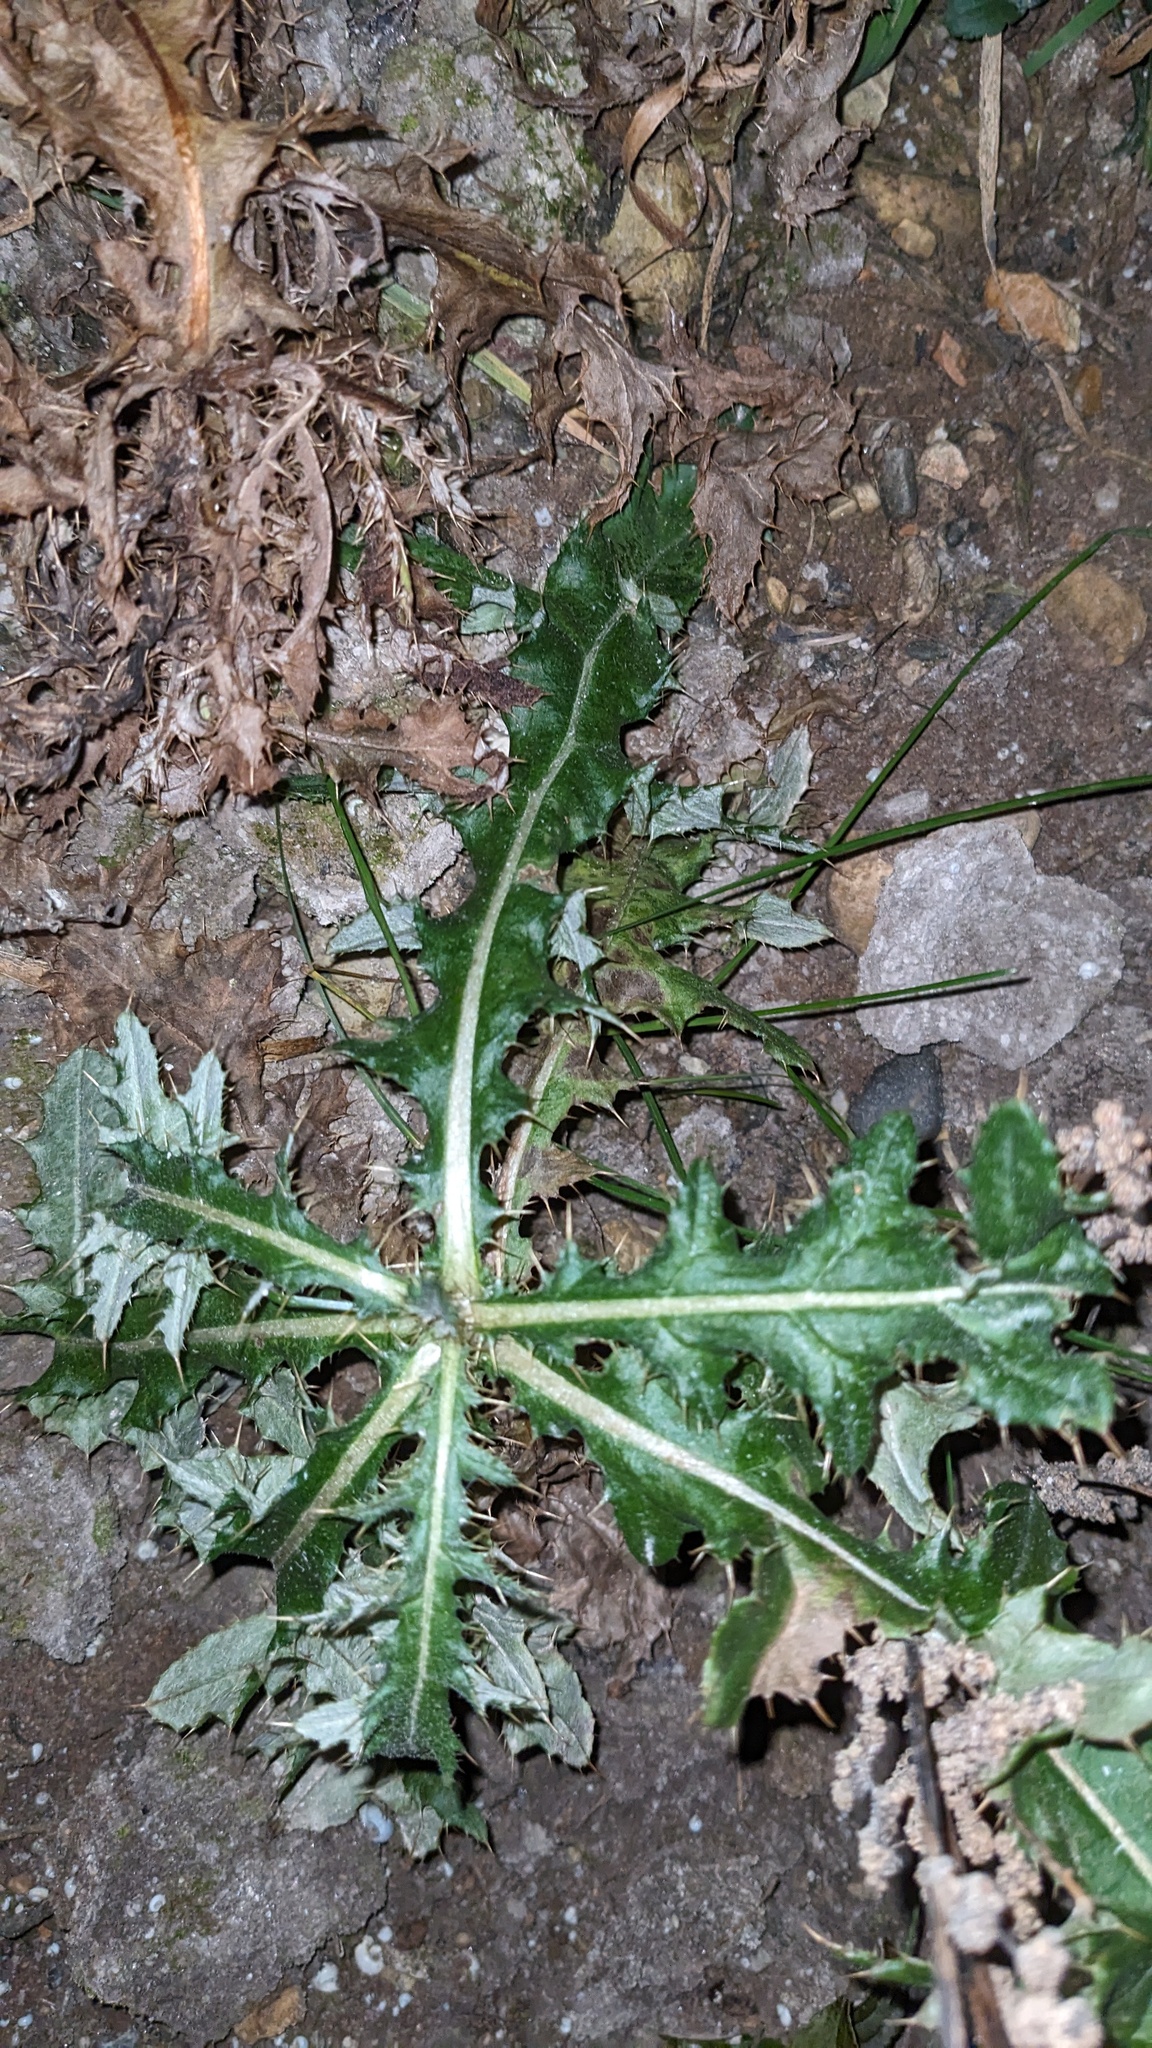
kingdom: Plantae
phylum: Tracheophyta
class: Magnoliopsida
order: Asterales
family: Asteraceae
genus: Cirsium
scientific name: Cirsium arvense
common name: Creeping thistle
